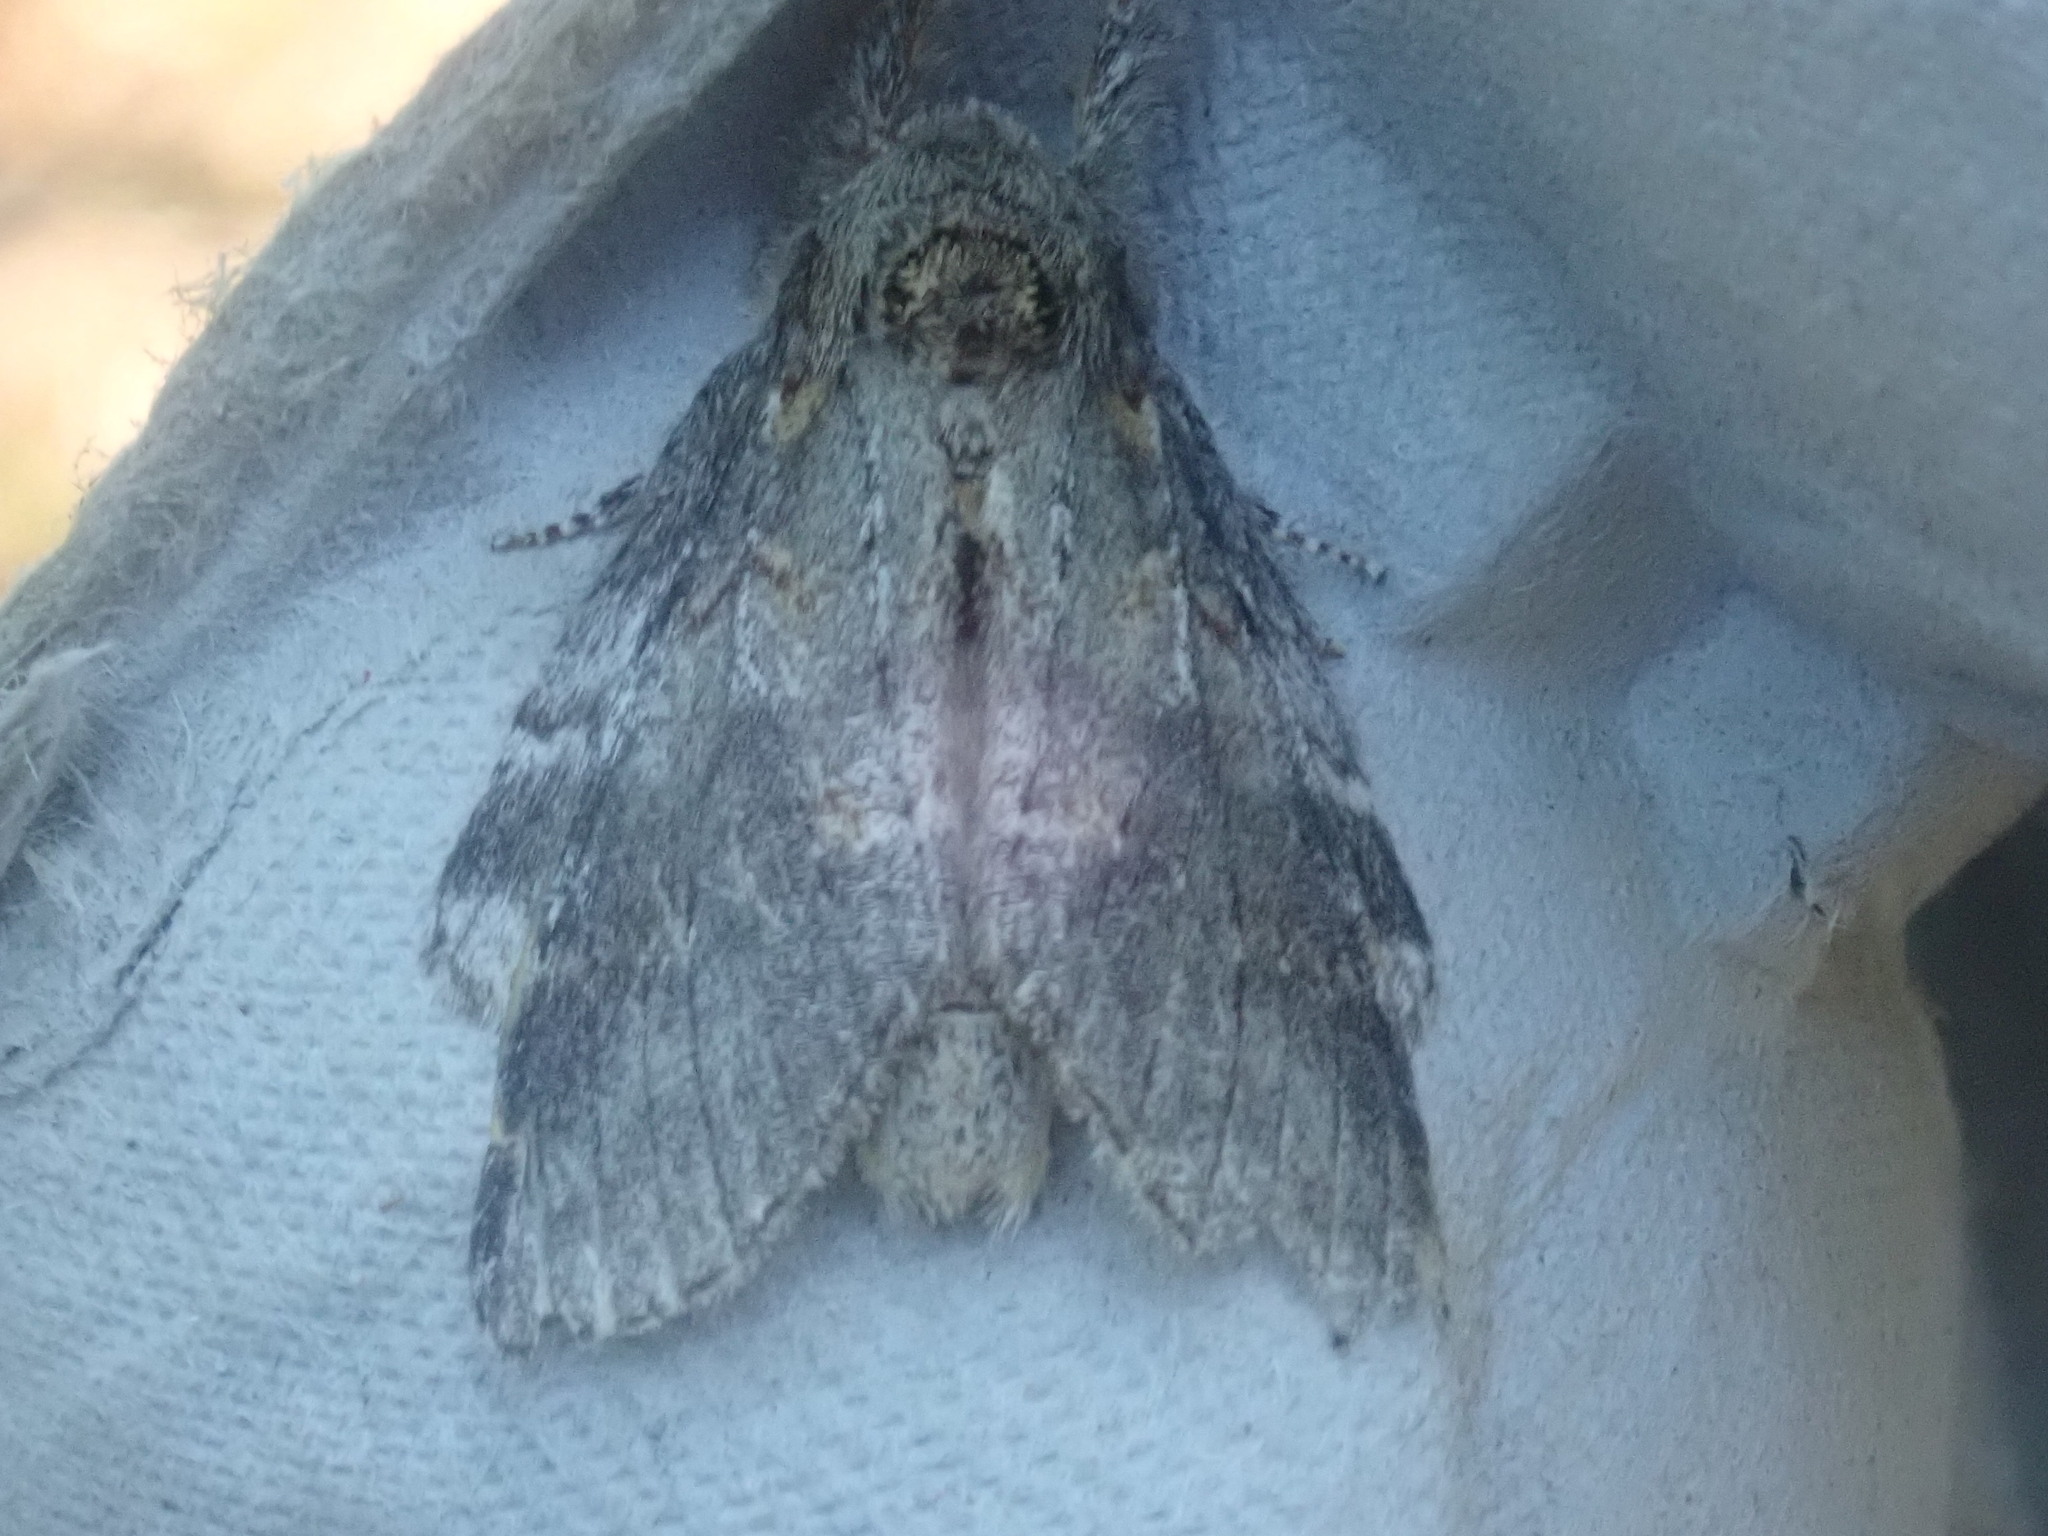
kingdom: Animalia
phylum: Arthropoda
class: Insecta
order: Lepidoptera
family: Notodontidae
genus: Peridea
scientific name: Peridea angulosa
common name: Angulose prominent
